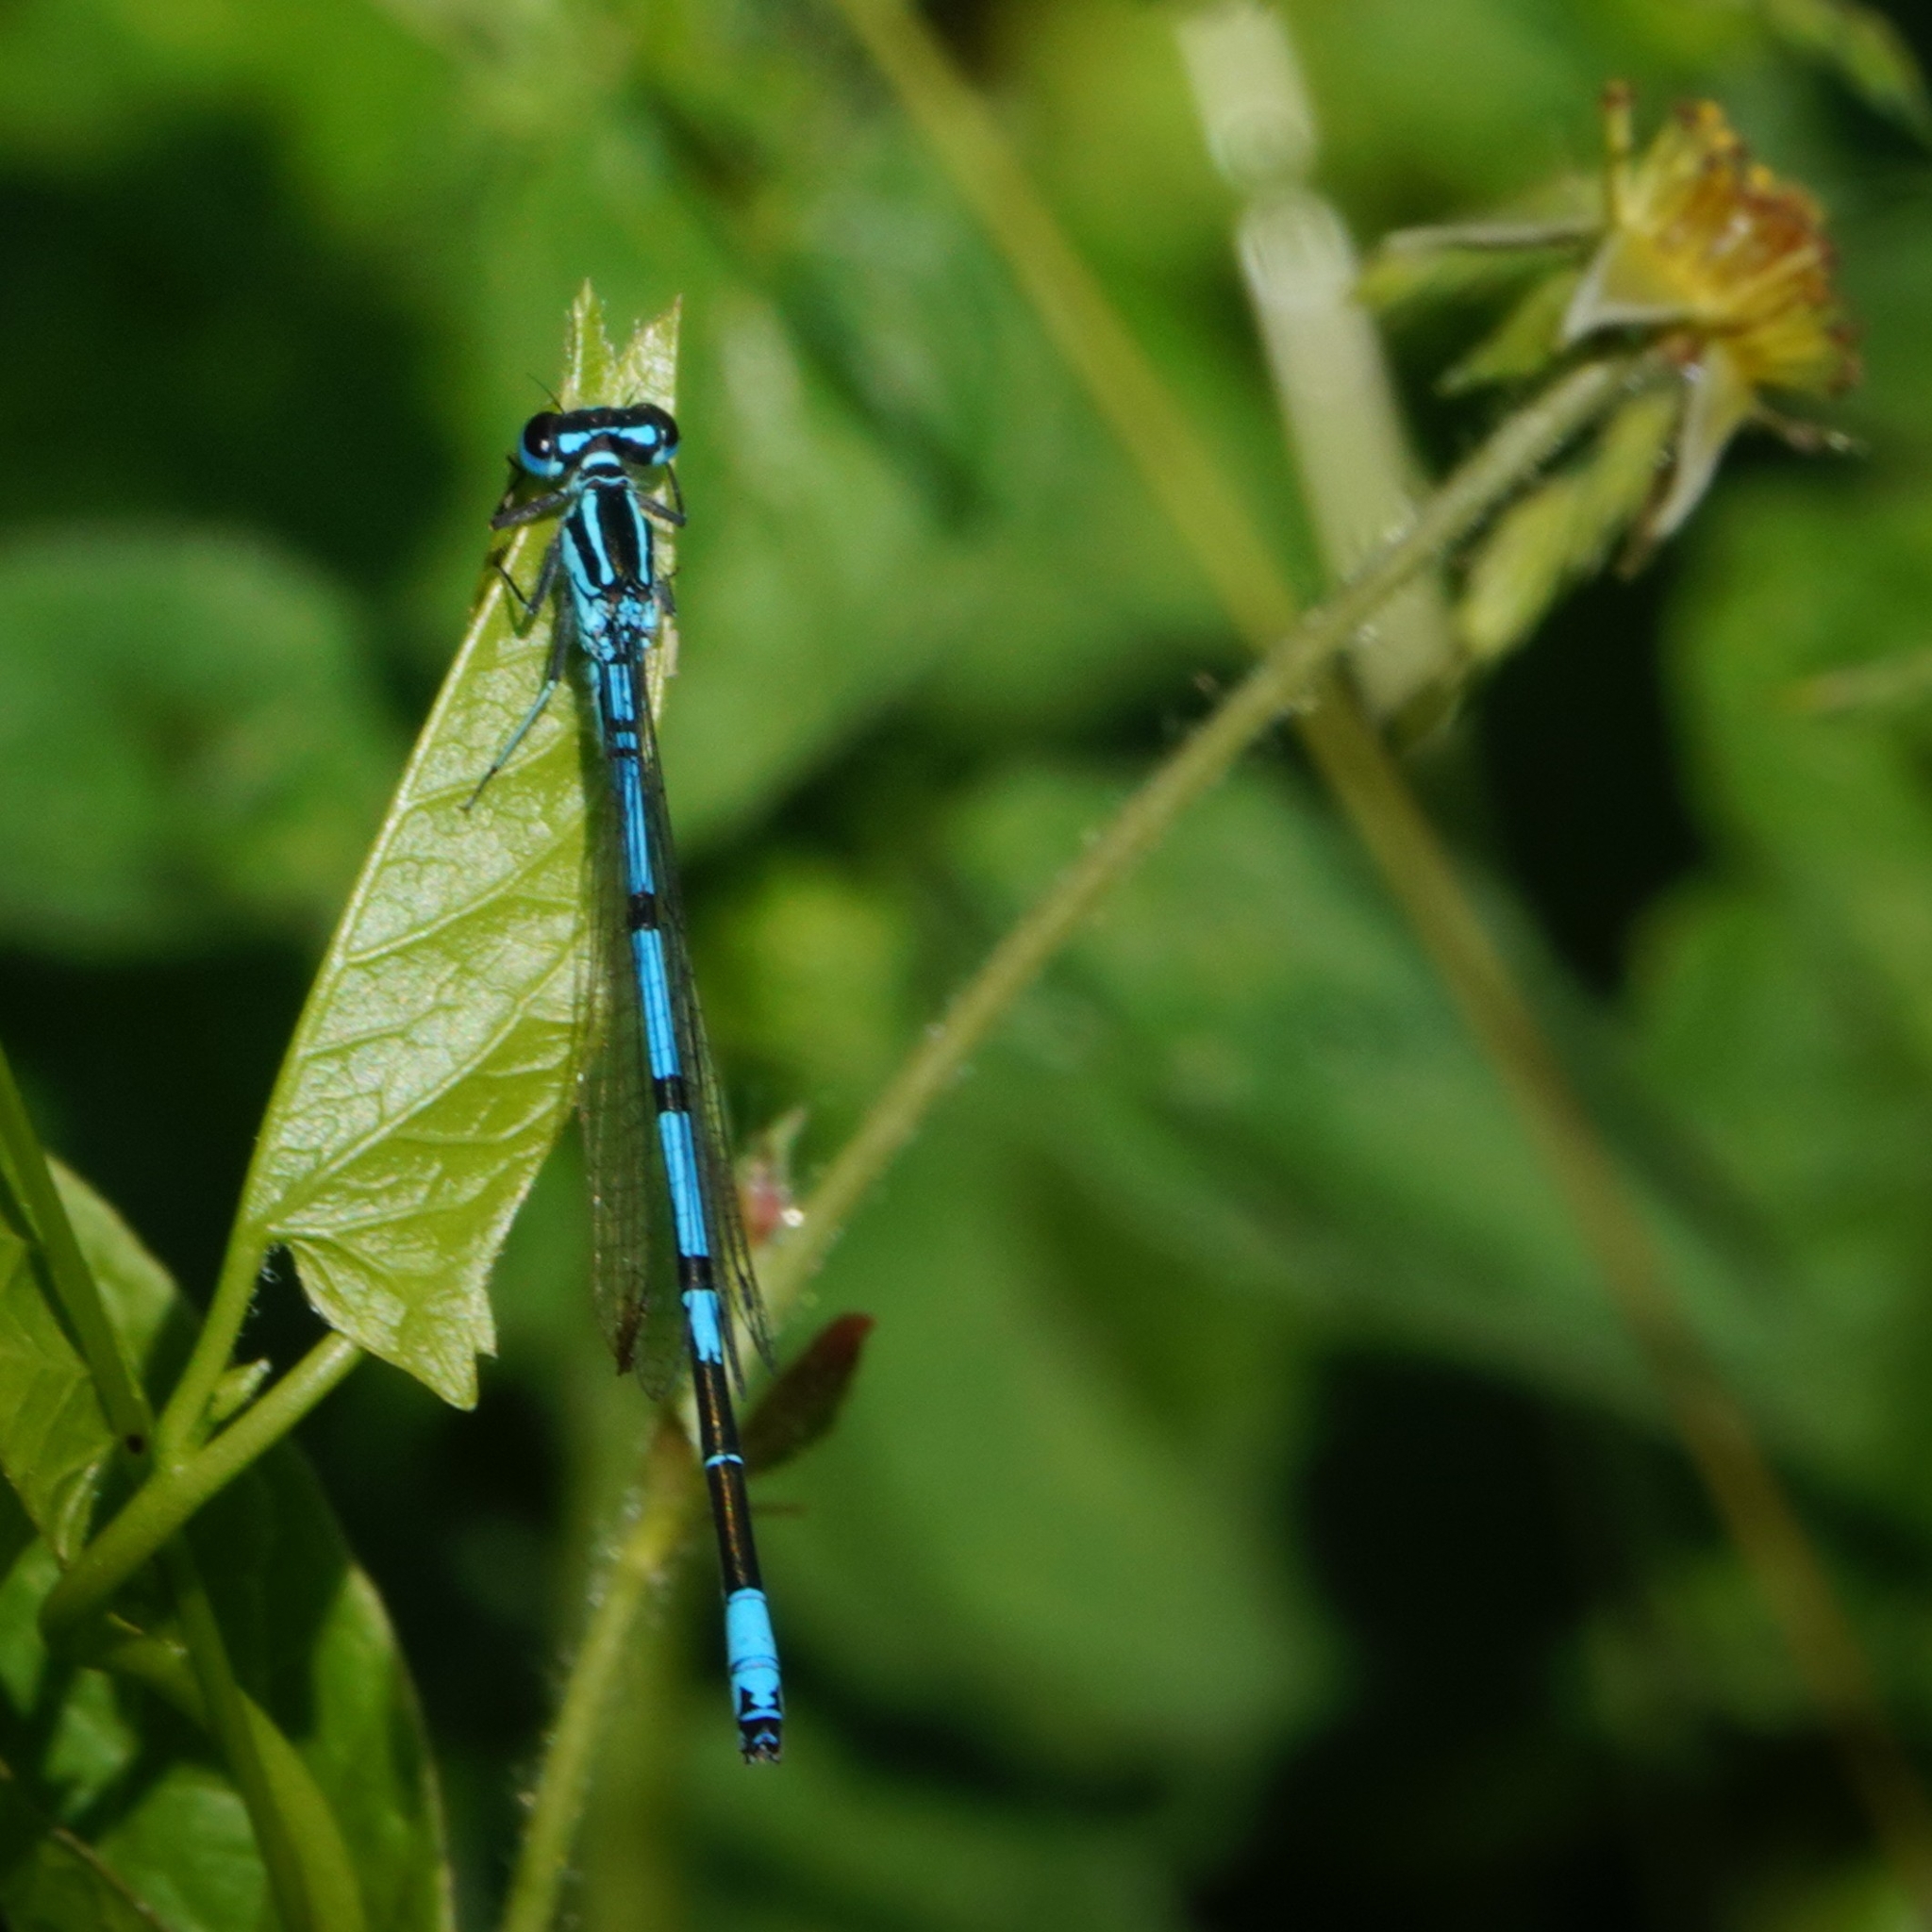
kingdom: Animalia
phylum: Arthropoda
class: Insecta
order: Odonata
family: Coenagrionidae
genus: Coenagrion
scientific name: Coenagrion puella
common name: Azure damselfly
